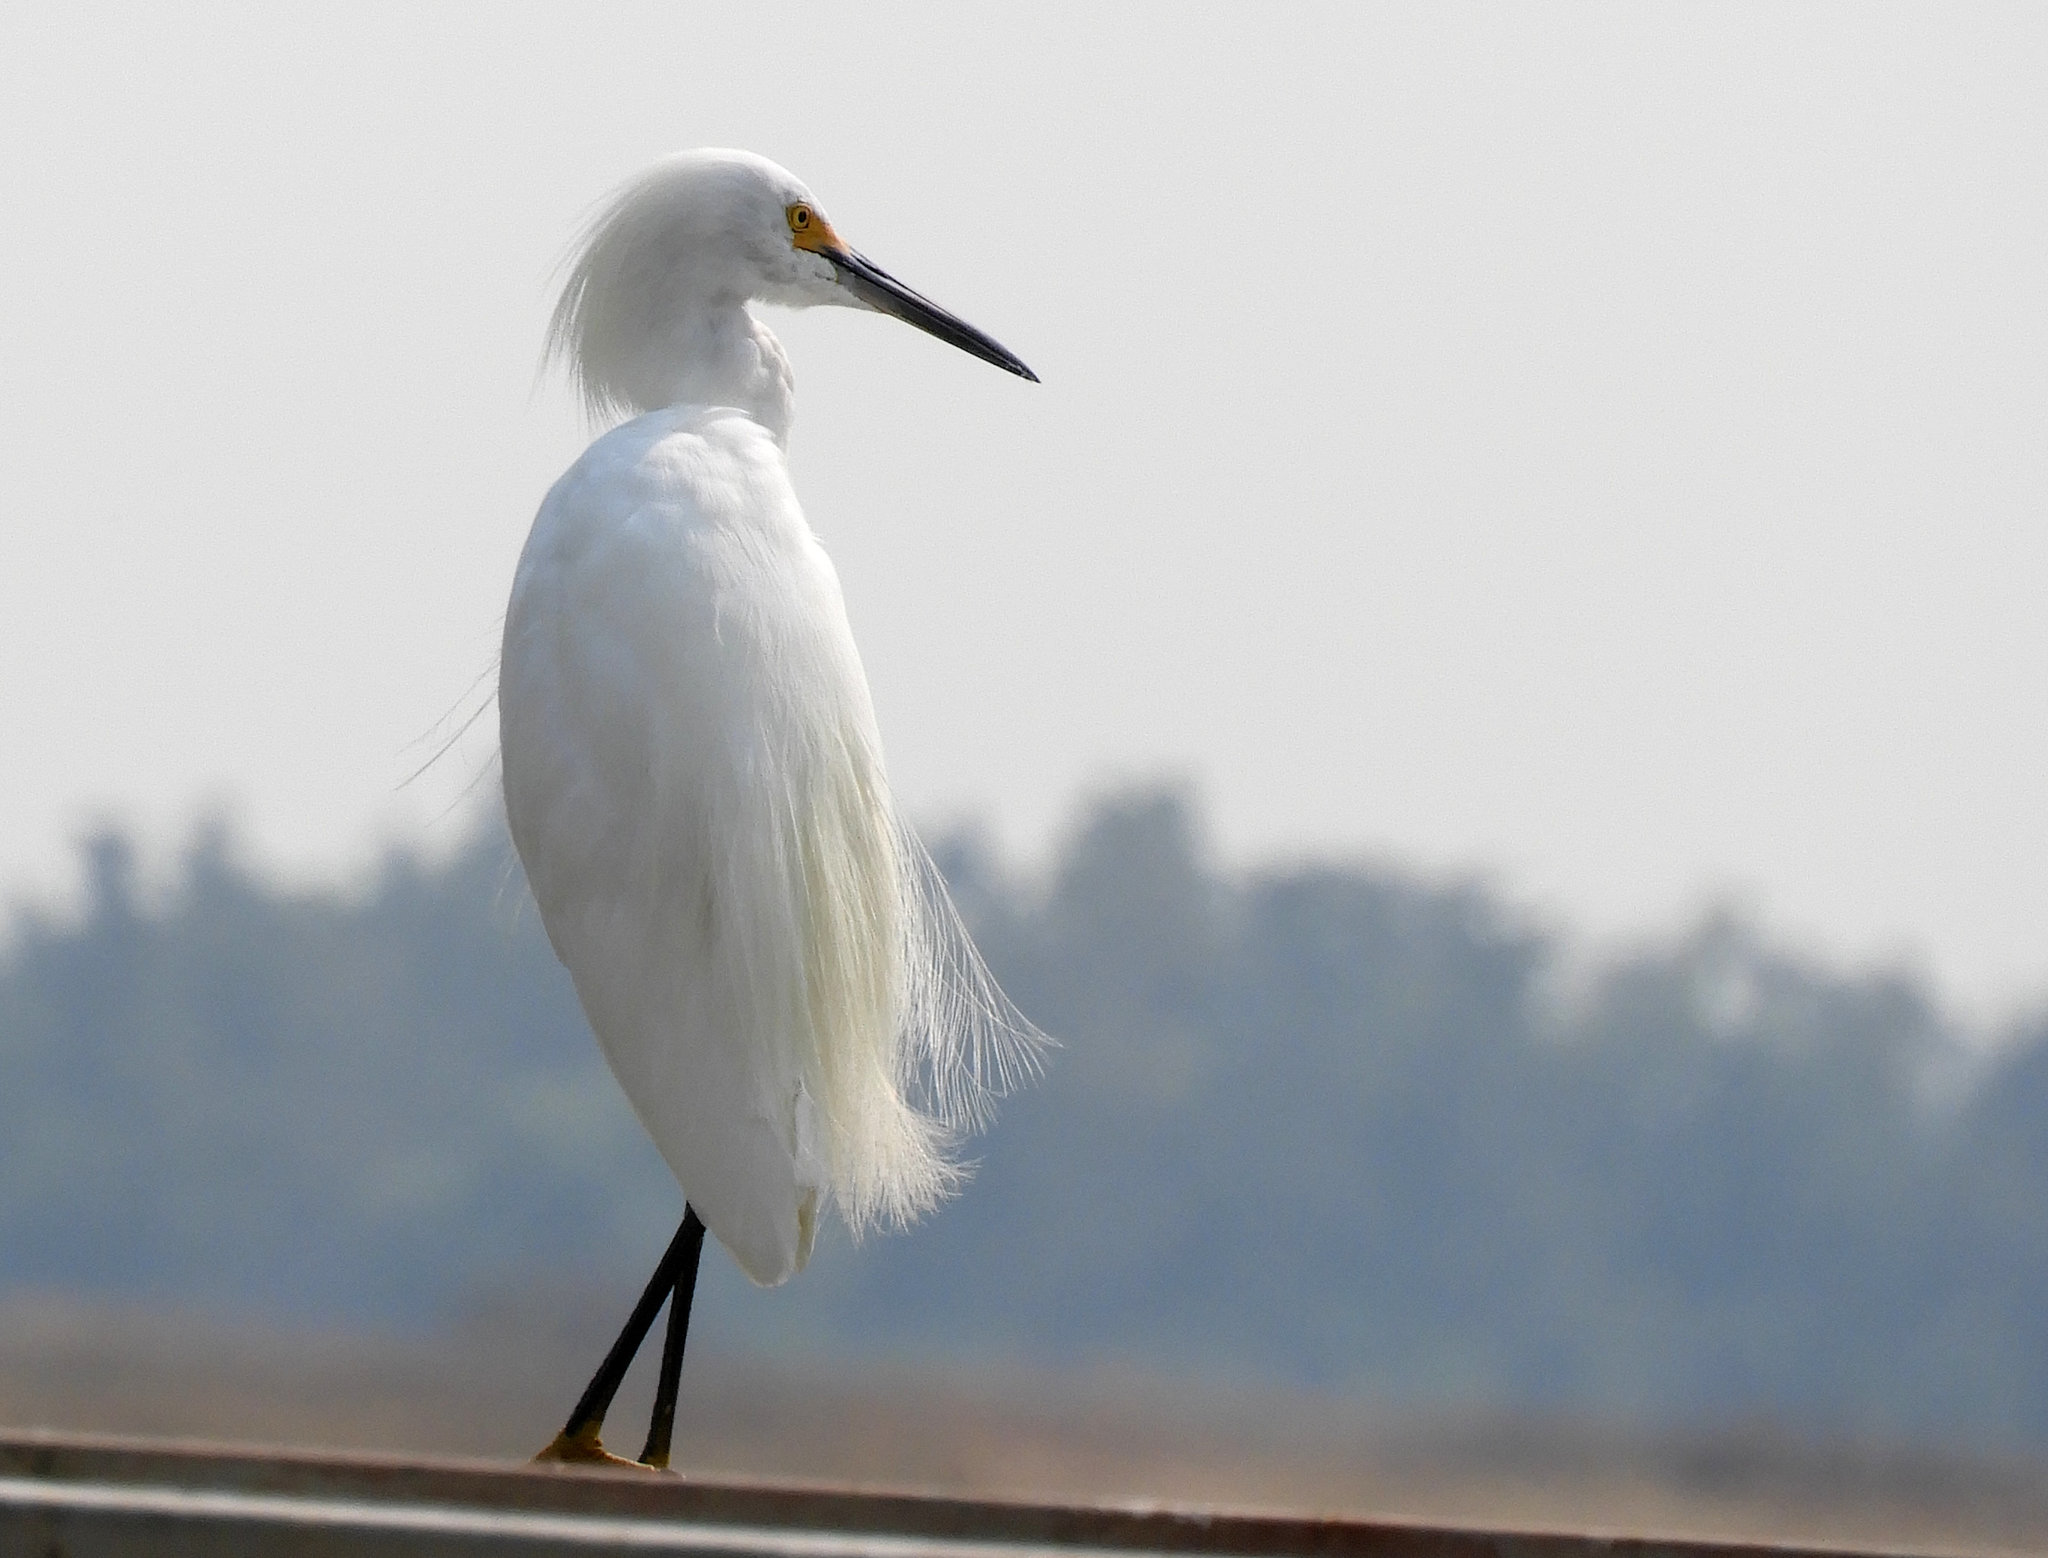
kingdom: Animalia
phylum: Chordata
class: Aves
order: Pelecaniformes
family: Ardeidae
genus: Egretta
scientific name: Egretta thula
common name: Snowy egret
